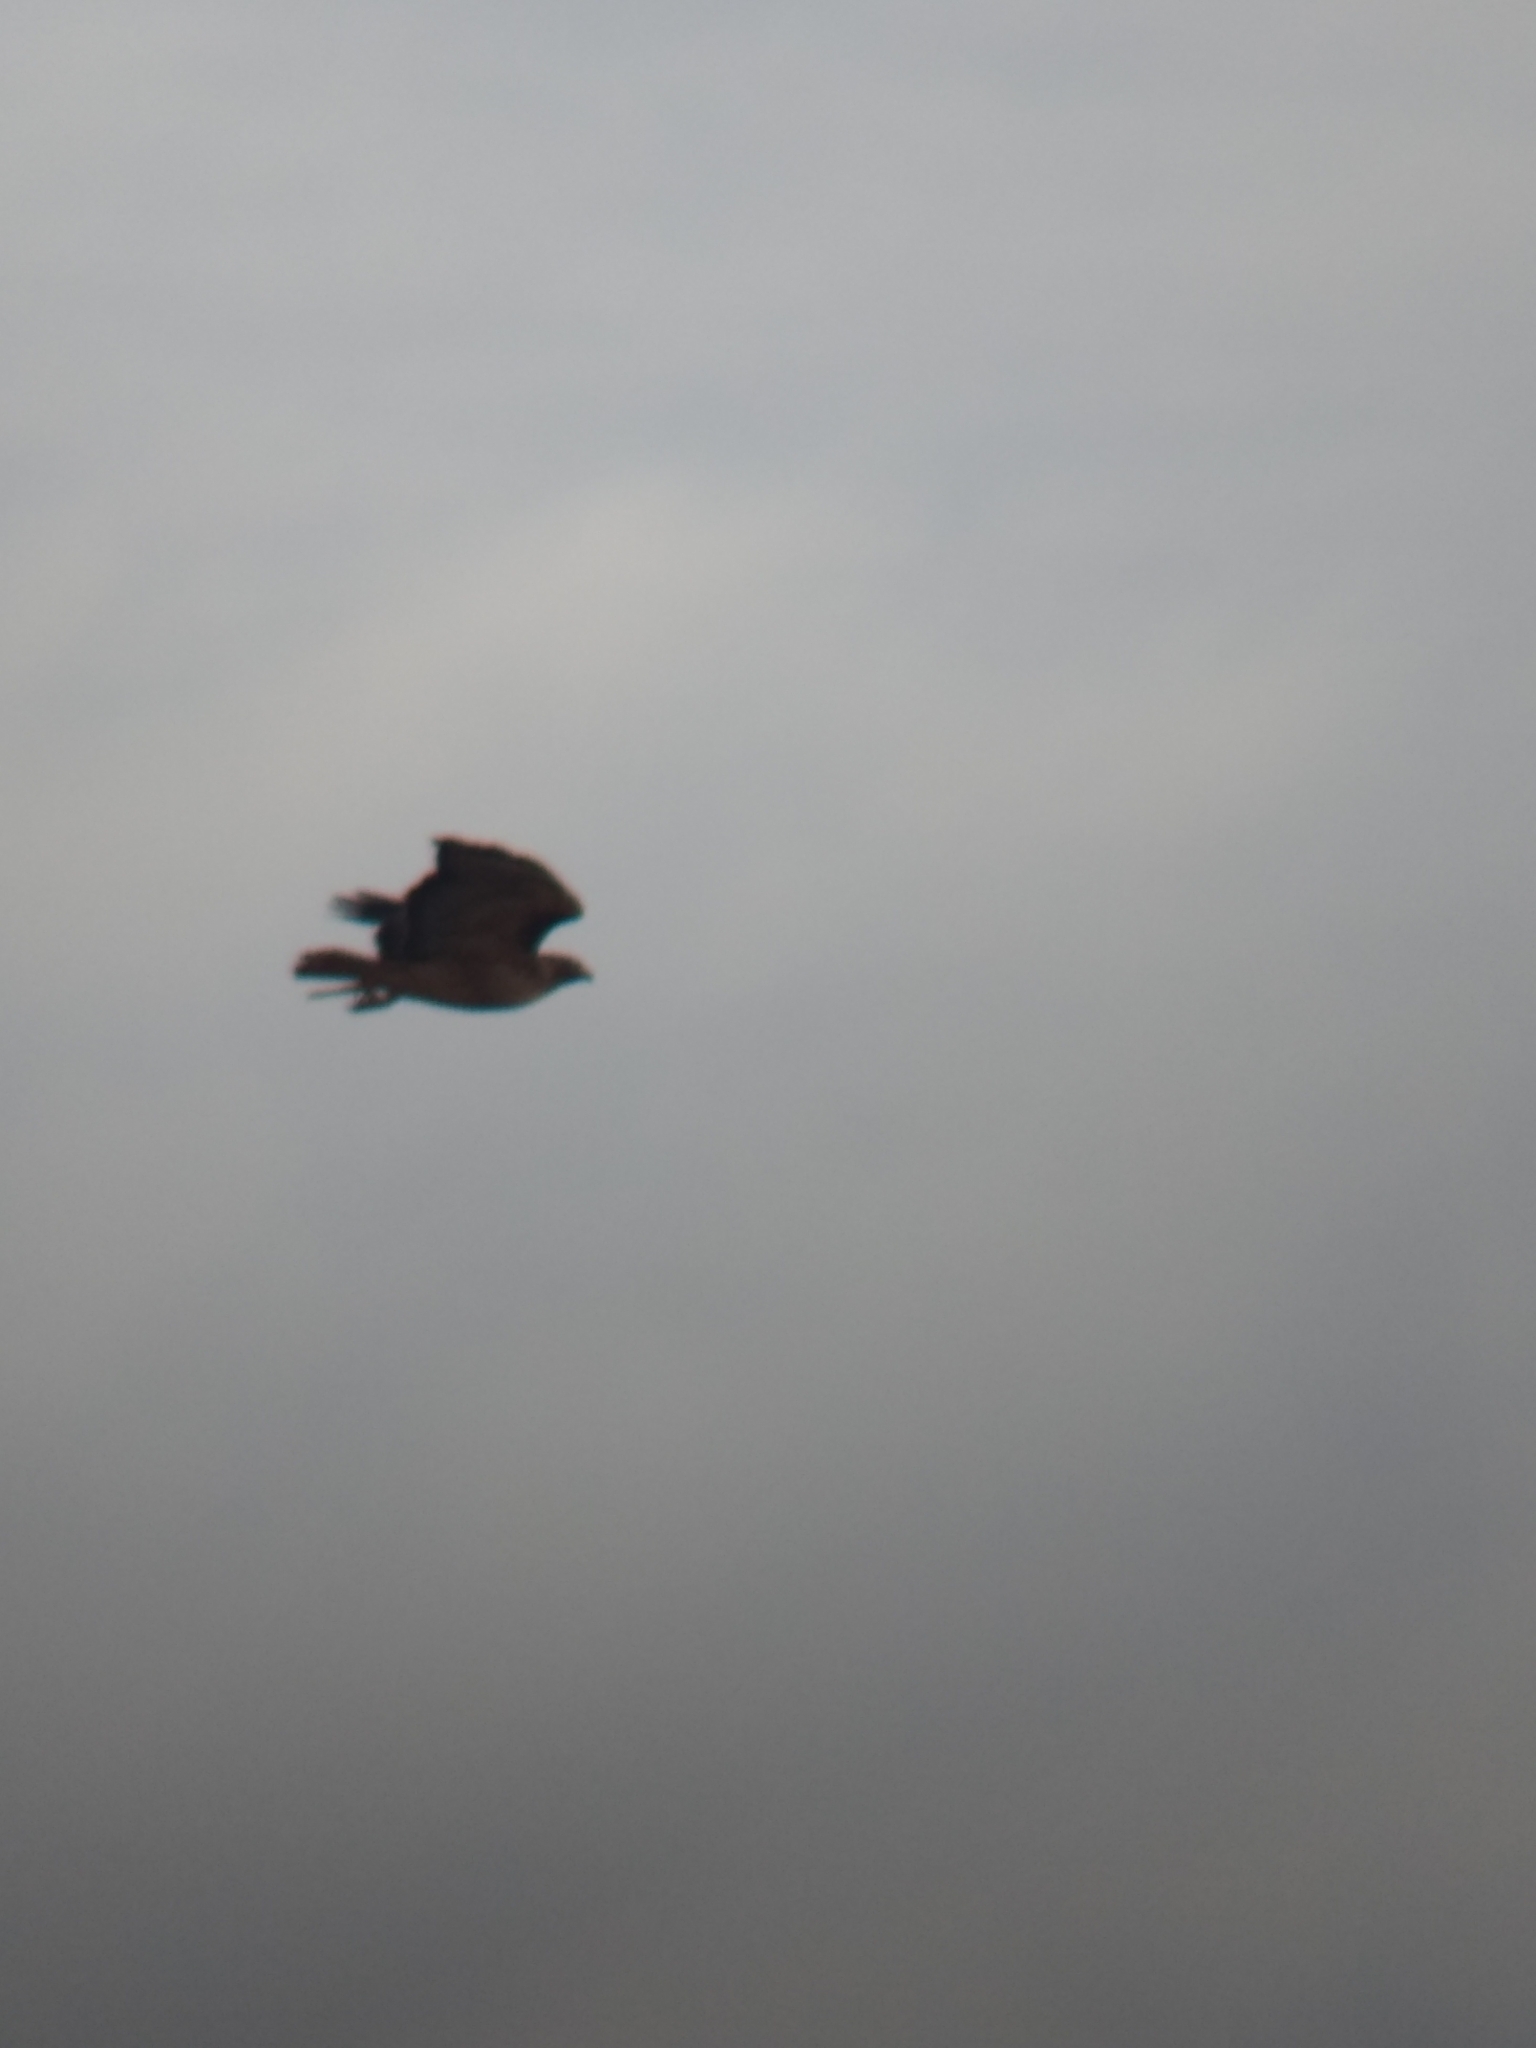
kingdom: Animalia
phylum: Chordata
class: Aves
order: Accipitriformes
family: Accipitridae
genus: Buteo
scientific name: Buteo jamaicensis
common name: Red-tailed hawk
